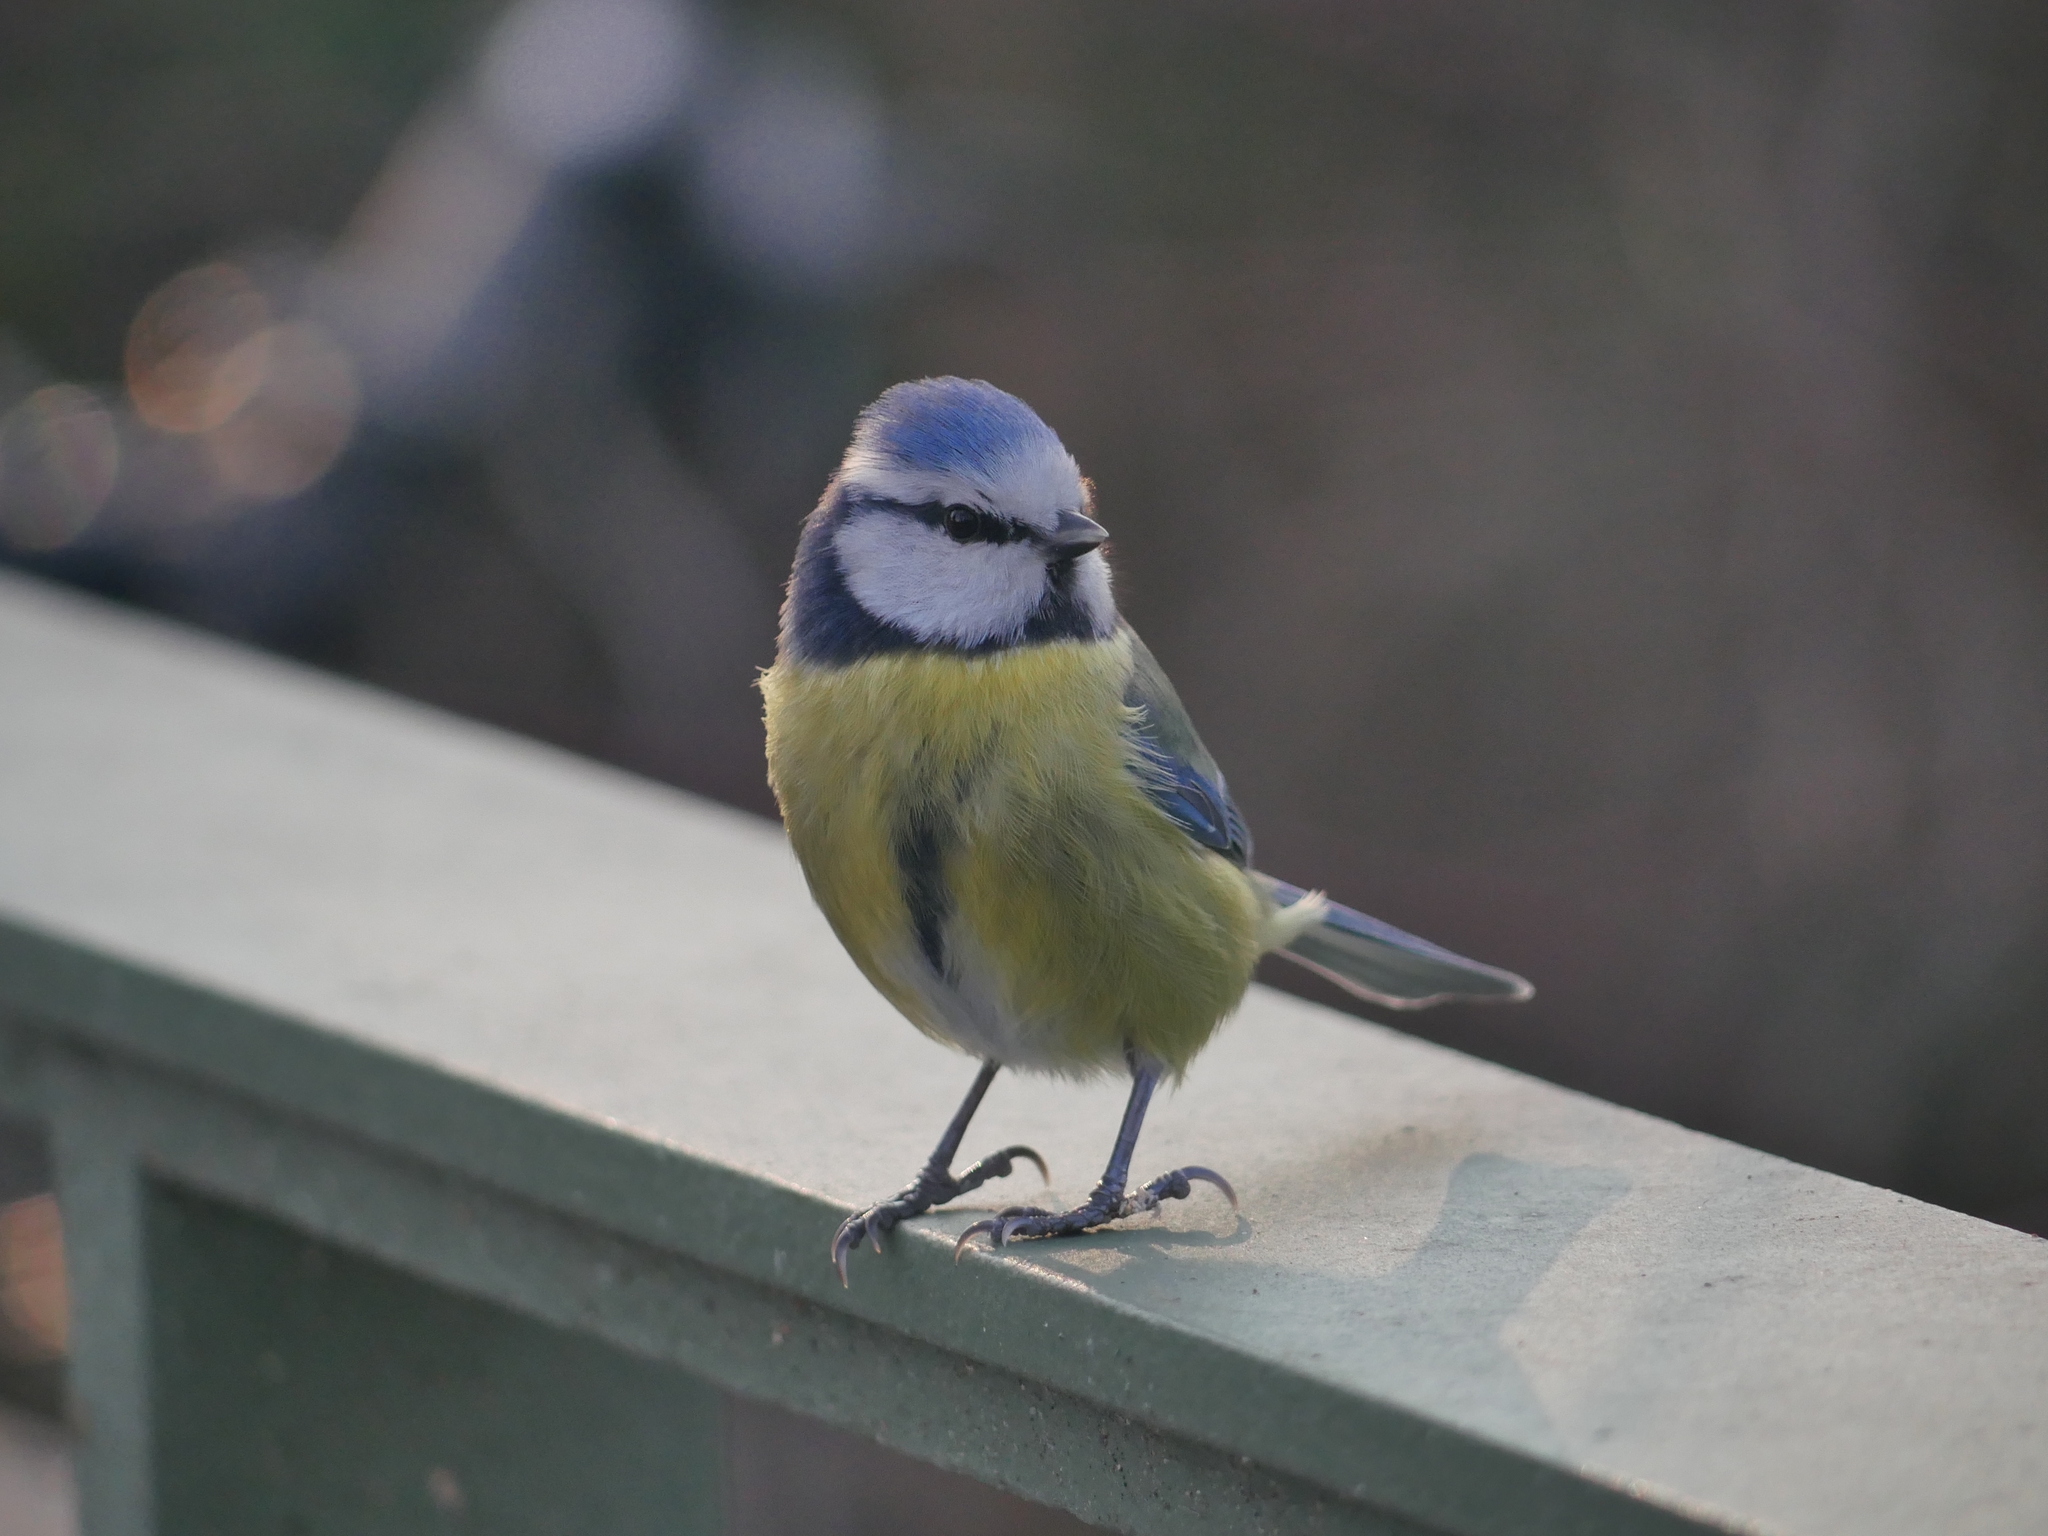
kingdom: Animalia
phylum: Chordata
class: Aves
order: Passeriformes
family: Paridae
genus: Cyanistes
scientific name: Cyanistes caeruleus
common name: Eurasian blue tit
